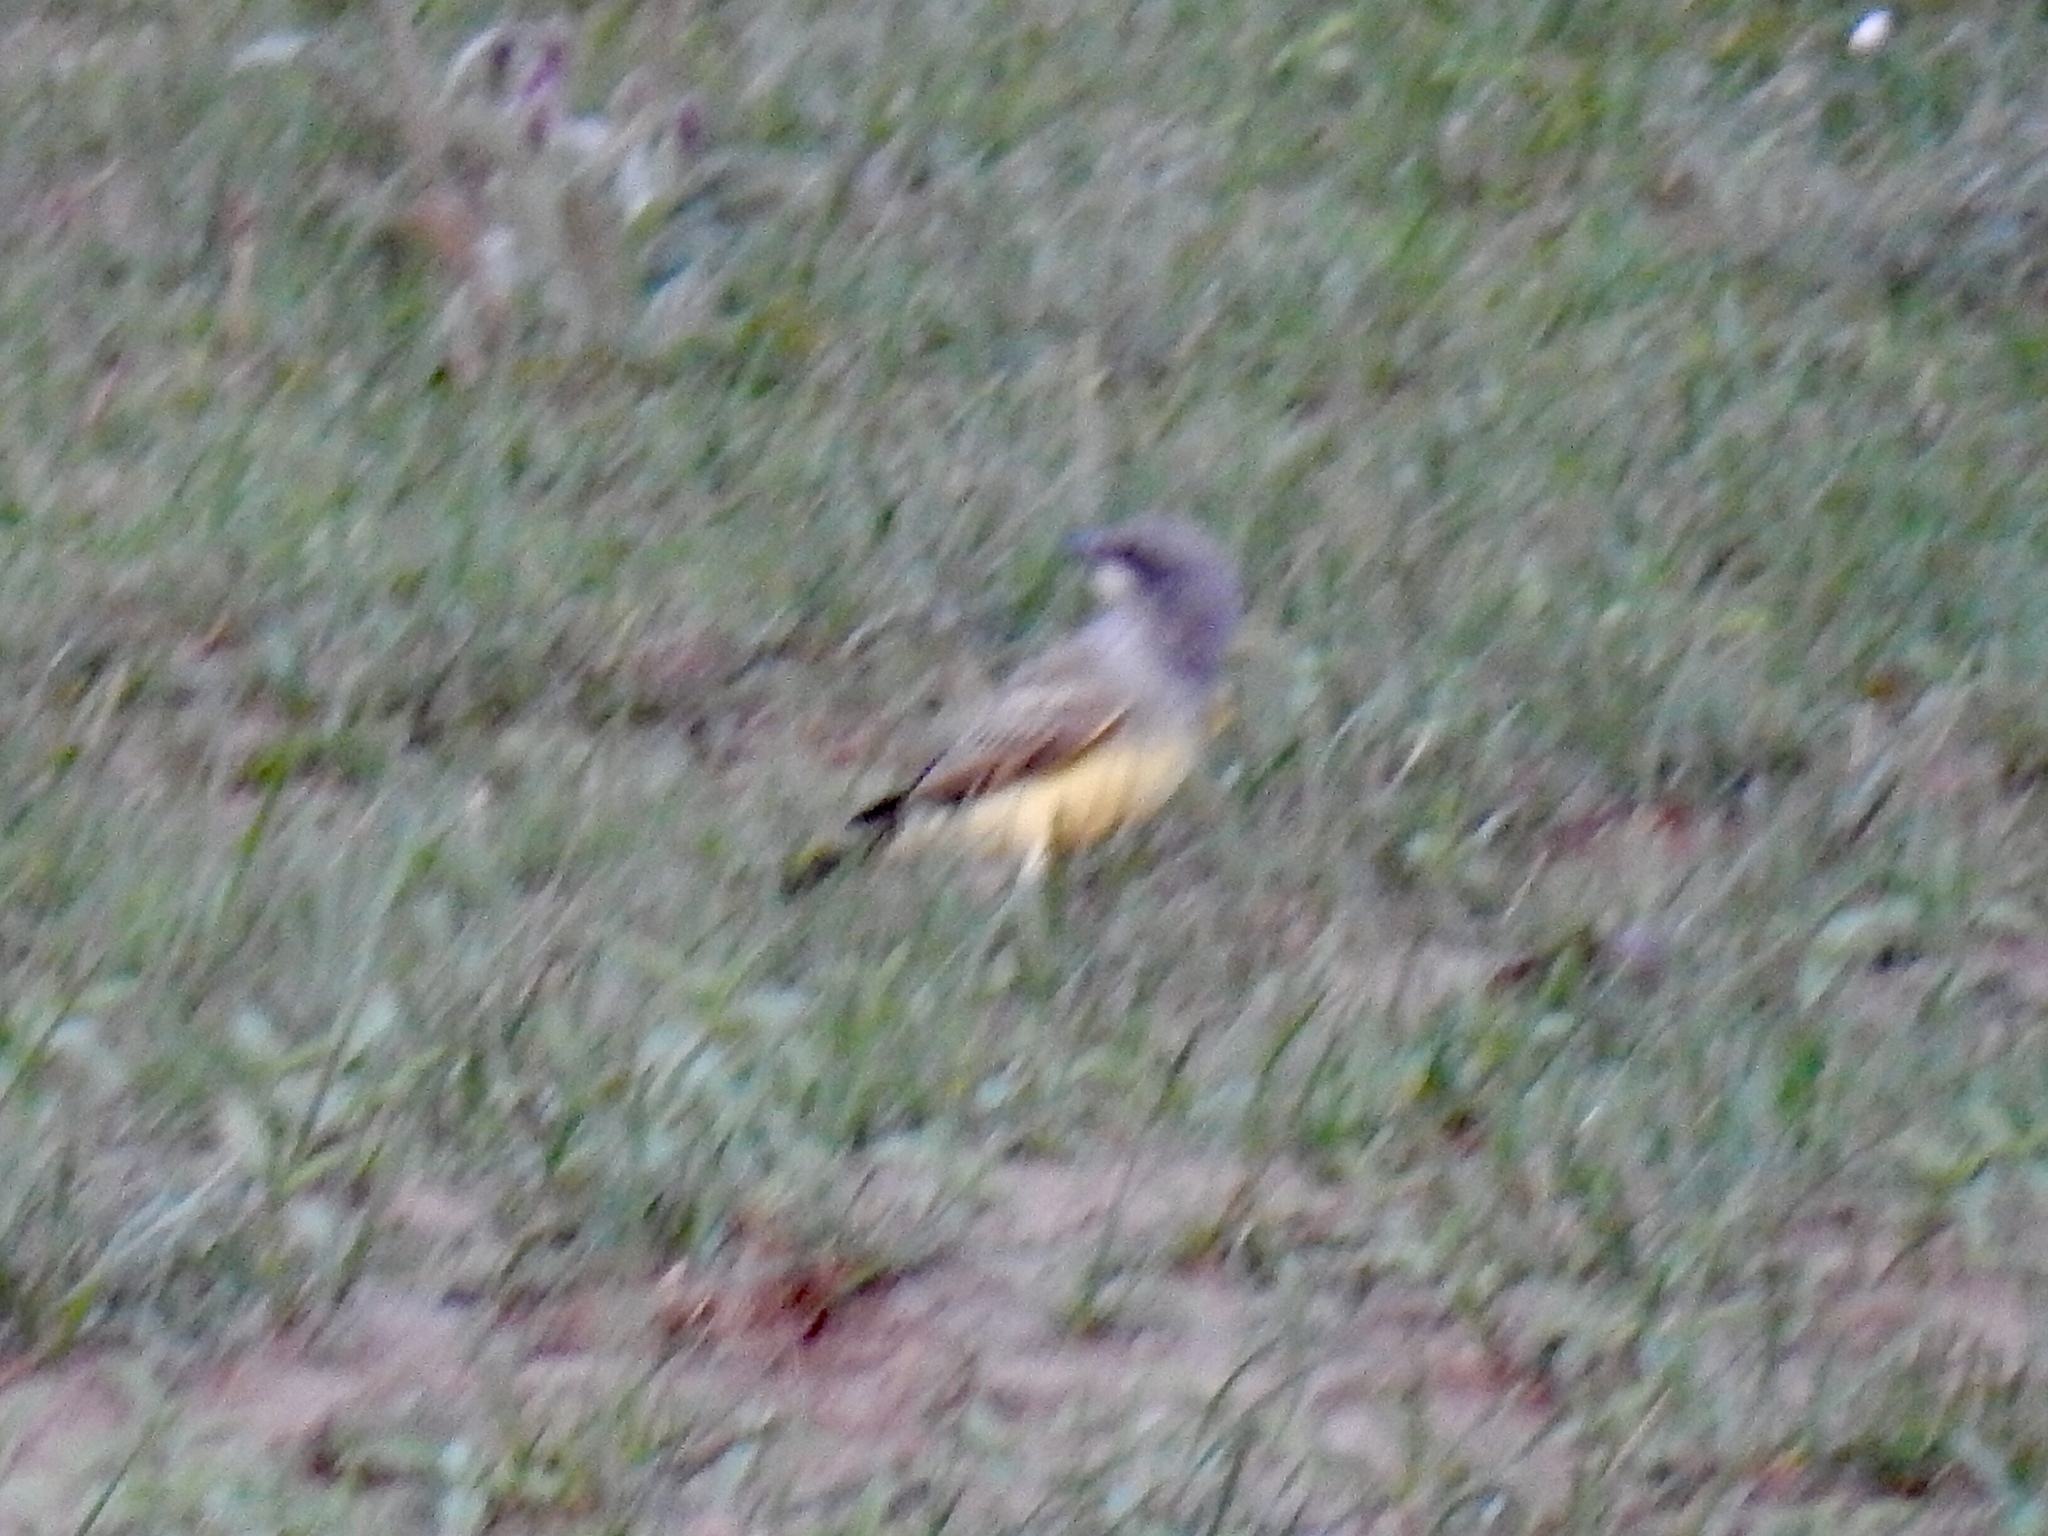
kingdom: Animalia
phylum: Chordata
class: Aves
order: Passeriformes
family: Tyrannidae
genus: Tyrannus
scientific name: Tyrannus vociferans
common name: Cassin's kingbird
